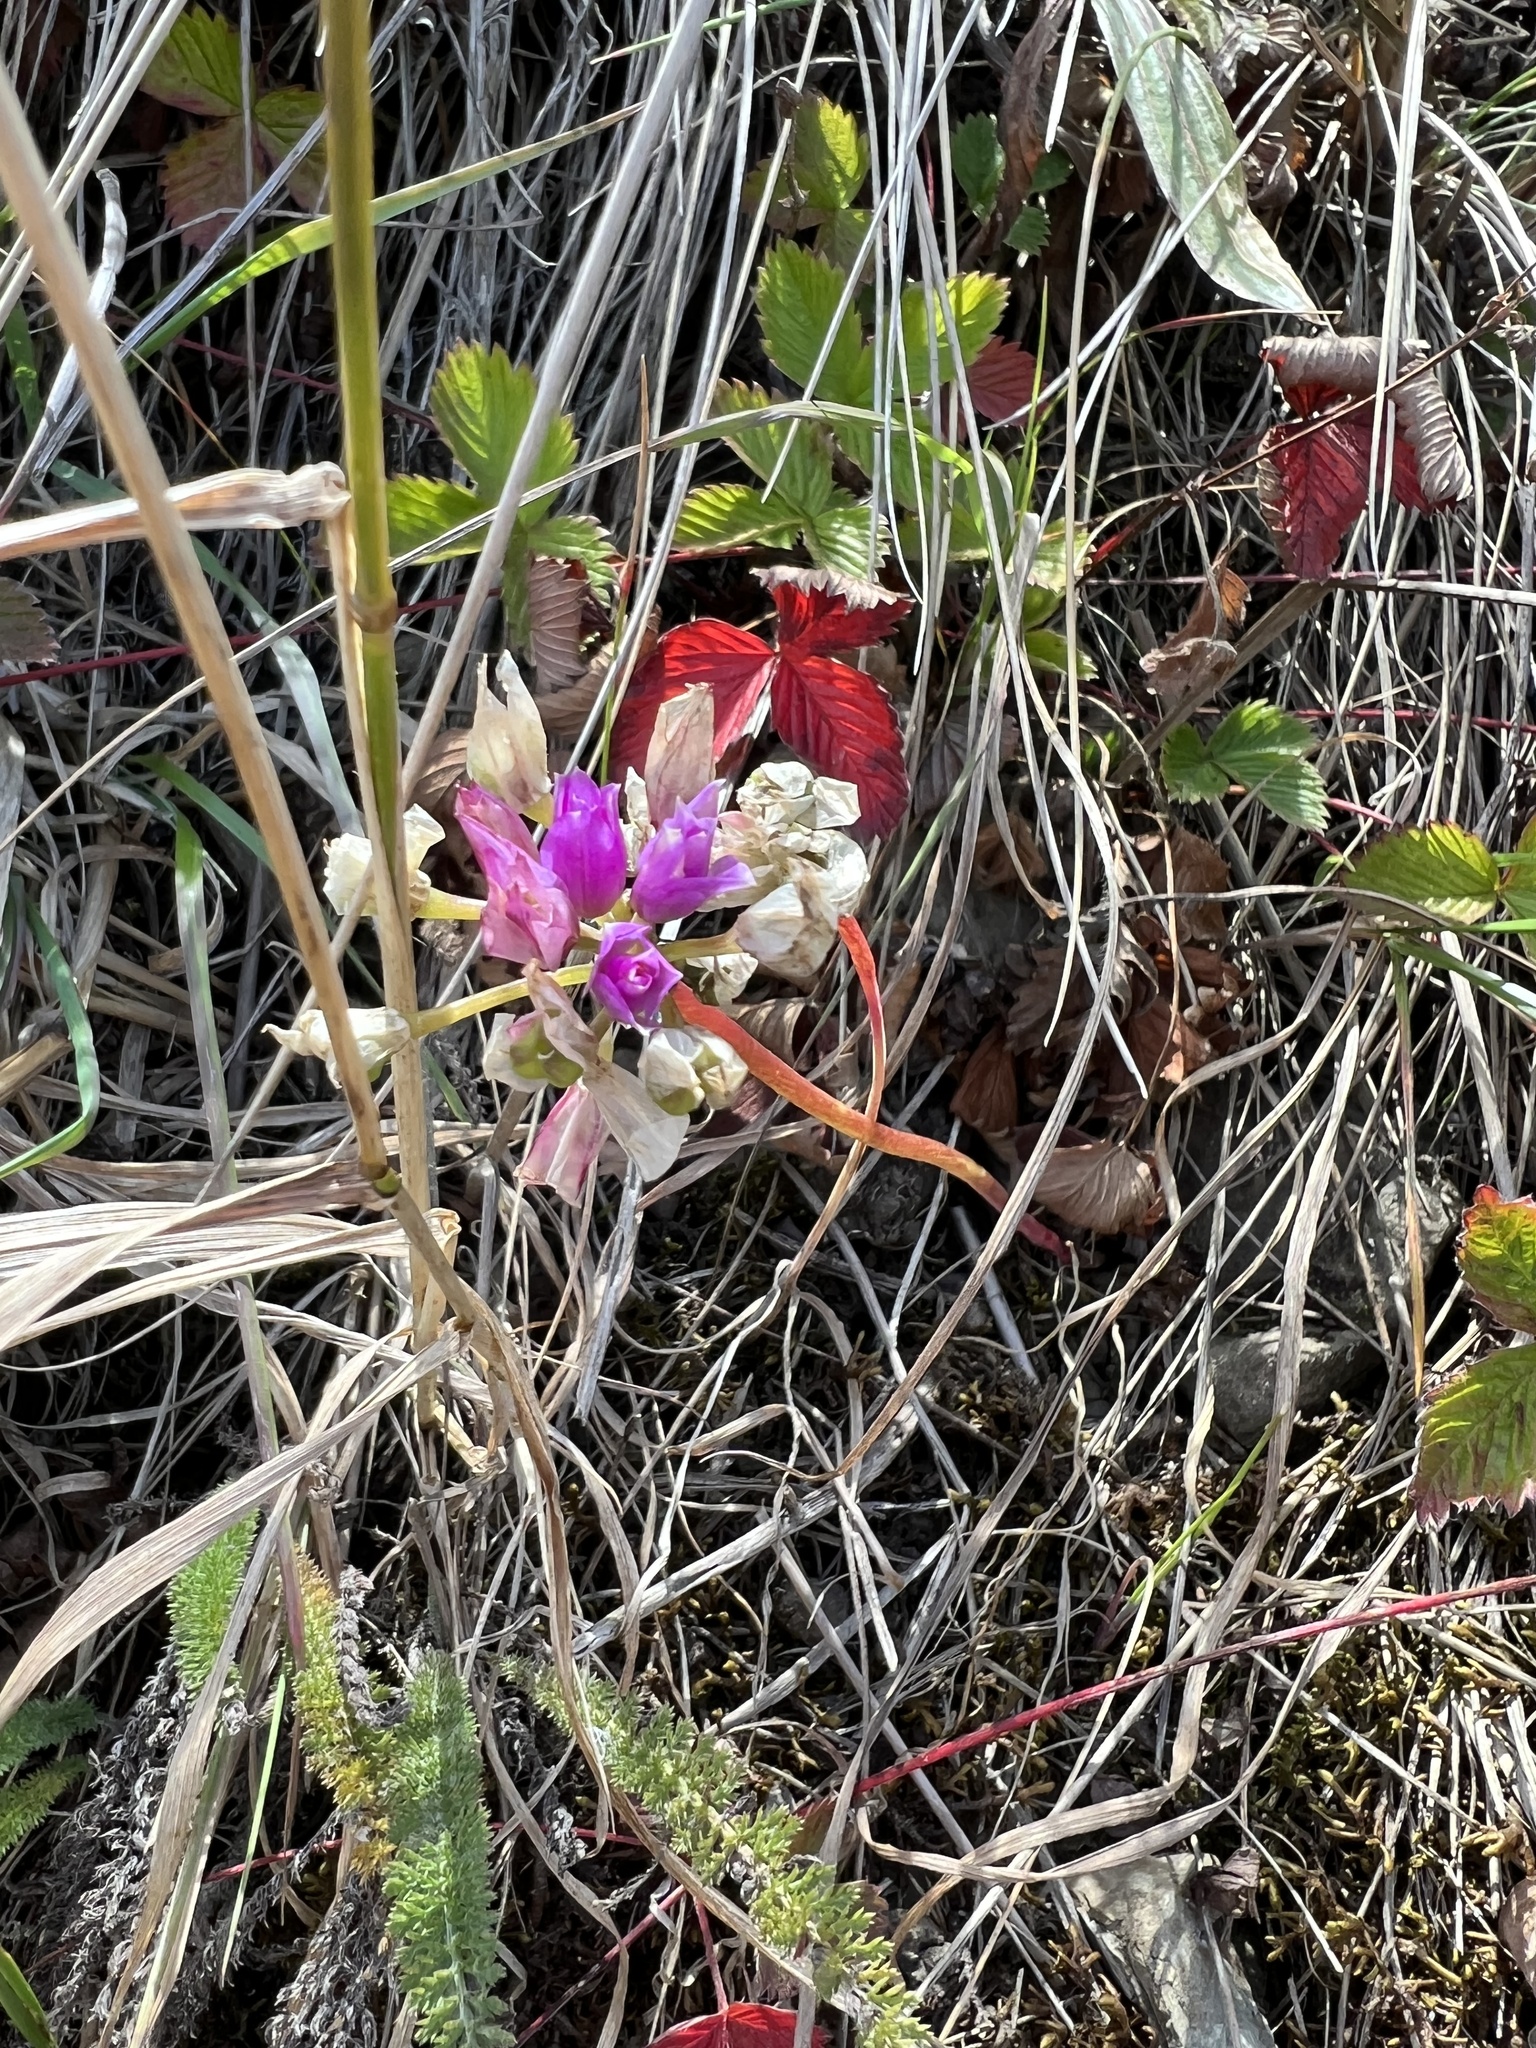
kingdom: Plantae
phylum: Tracheophyta
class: Liliopsida
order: Asparagales
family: Amaryllidaceae
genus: Allium
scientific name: Allium dichlamydeum
